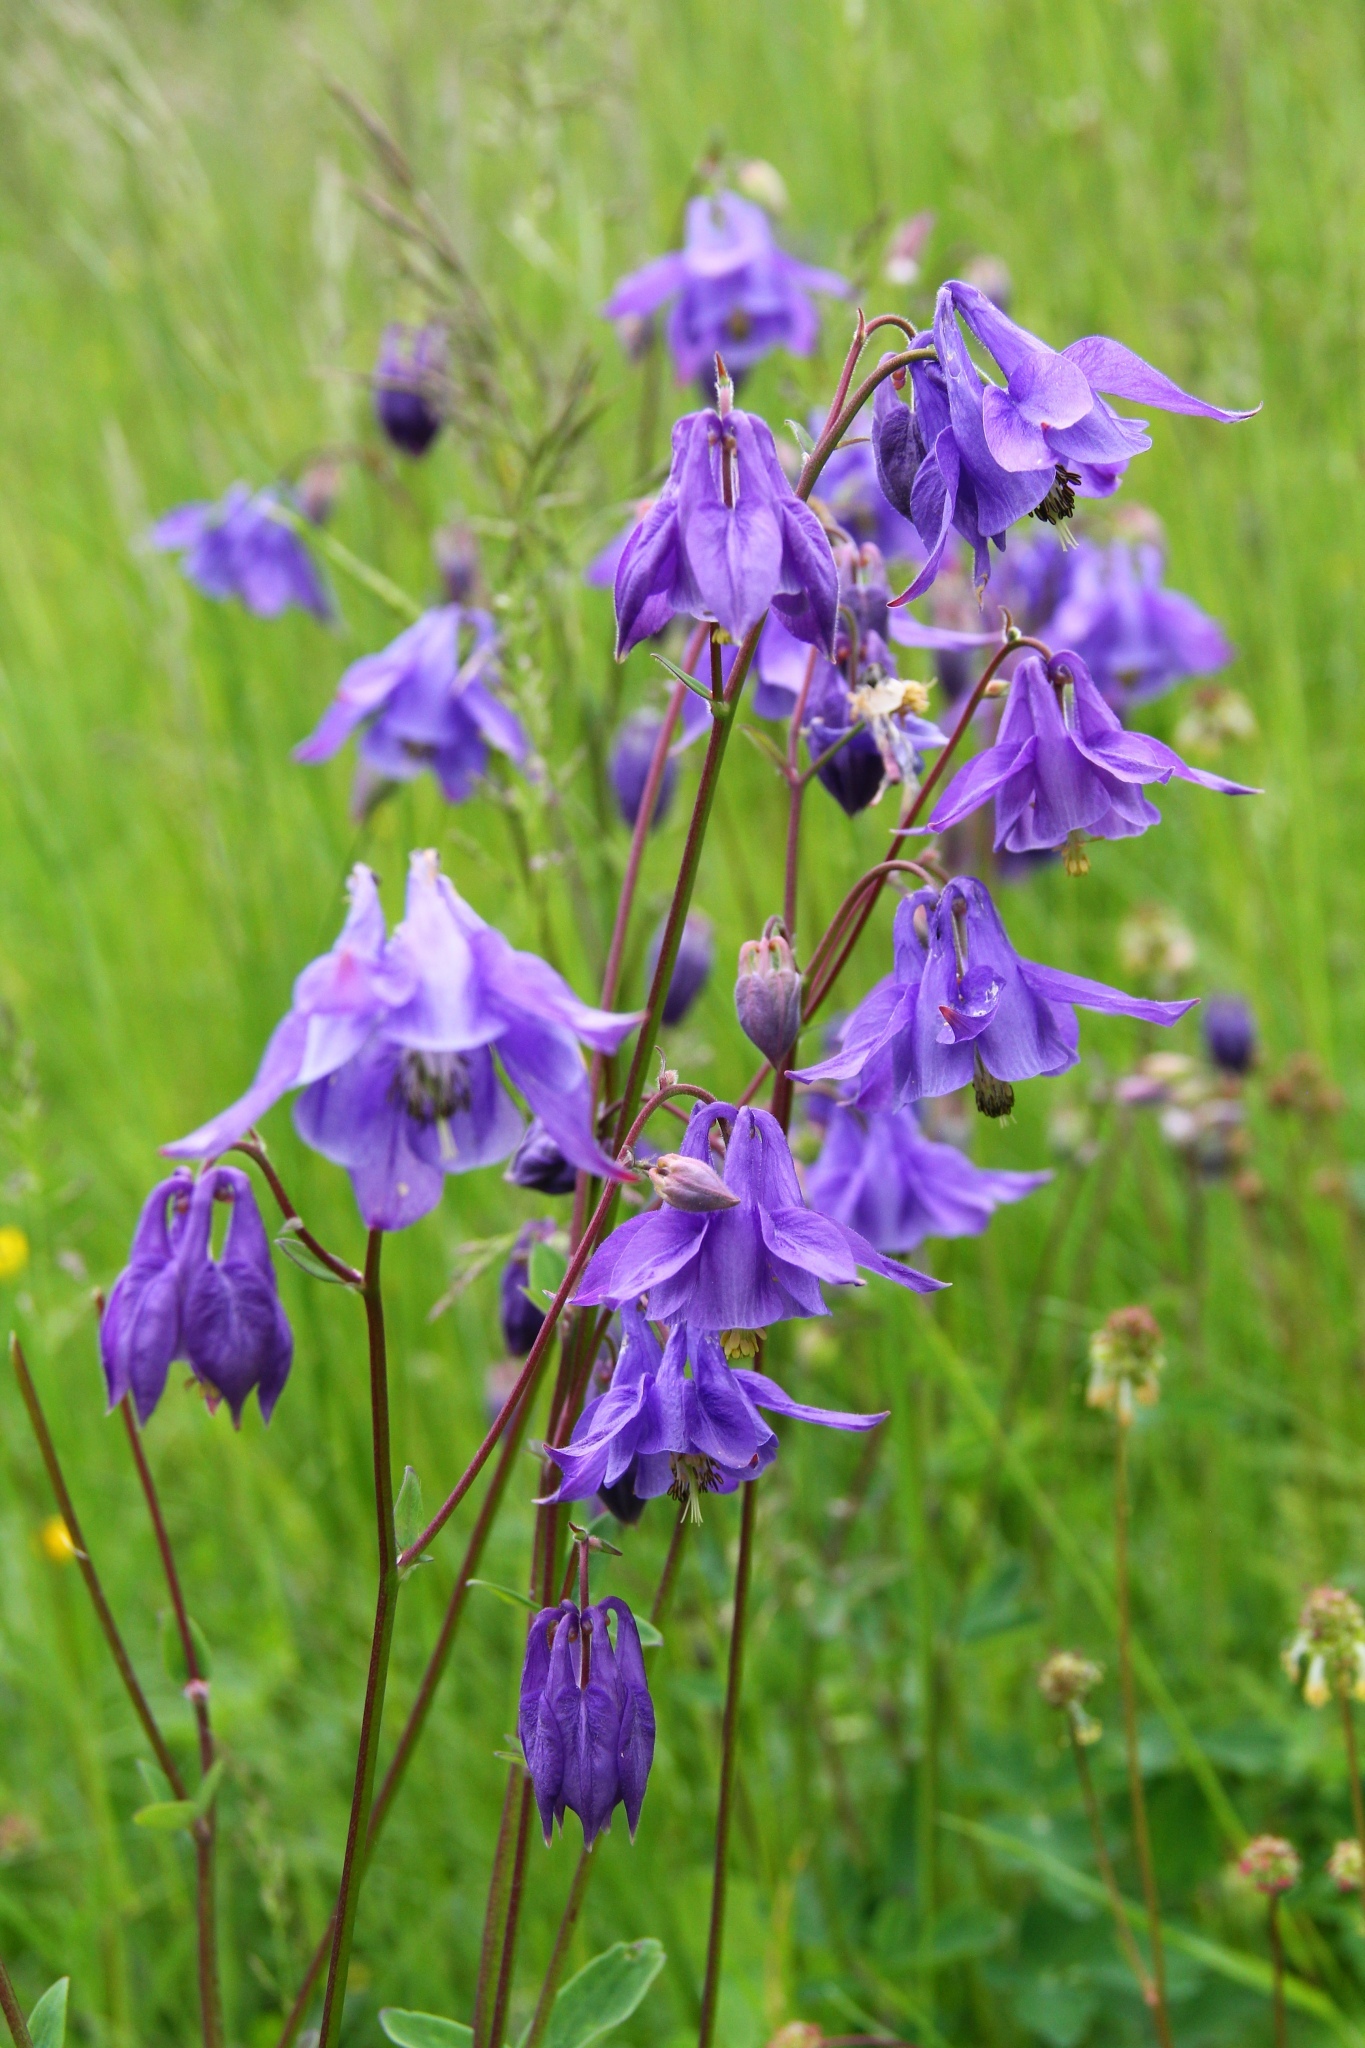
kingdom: Plantae
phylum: Tracheophyta
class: Magnoliopsida
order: Ranunculales
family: Ranunculaceae
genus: Aquilegia
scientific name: Aquilegia vulgaris
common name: Columbine
